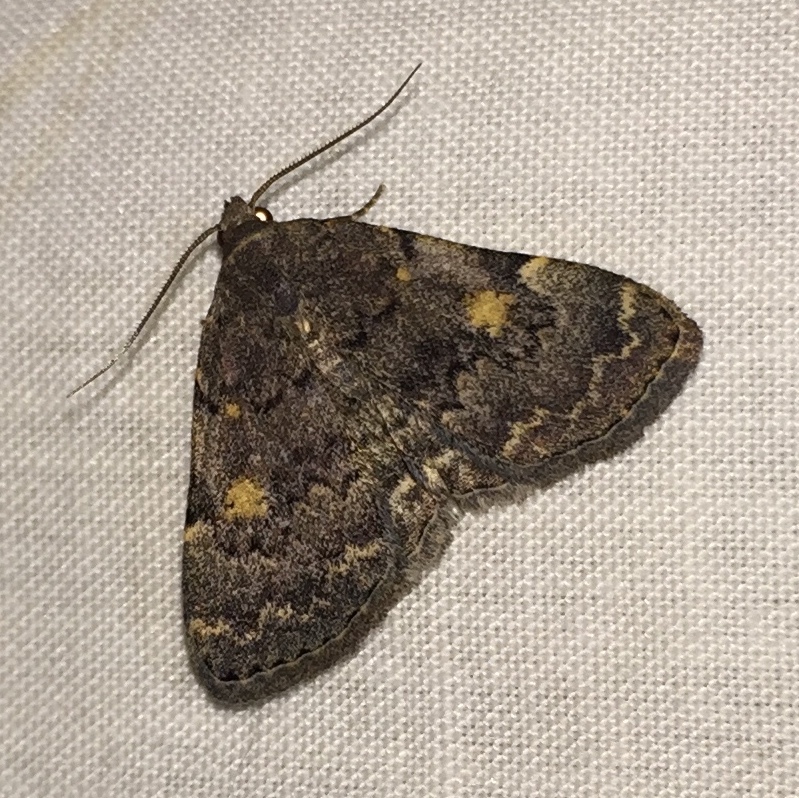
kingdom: Animalia
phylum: Arthropoda
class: Insecta
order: Lepidoptera
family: Erebidae
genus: Idia
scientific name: Idia aemula
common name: Common idia moth
